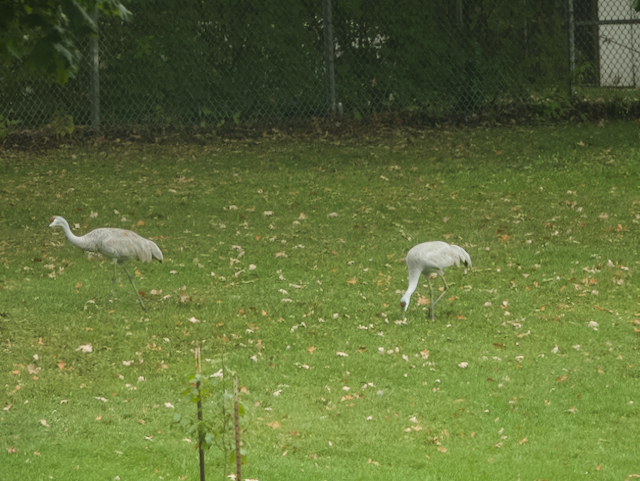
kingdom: Animalia
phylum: Chordata
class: Aves
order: Gruiformes
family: Gruidae
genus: Grus
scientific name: Grus canadensis
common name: Sandhill crane
